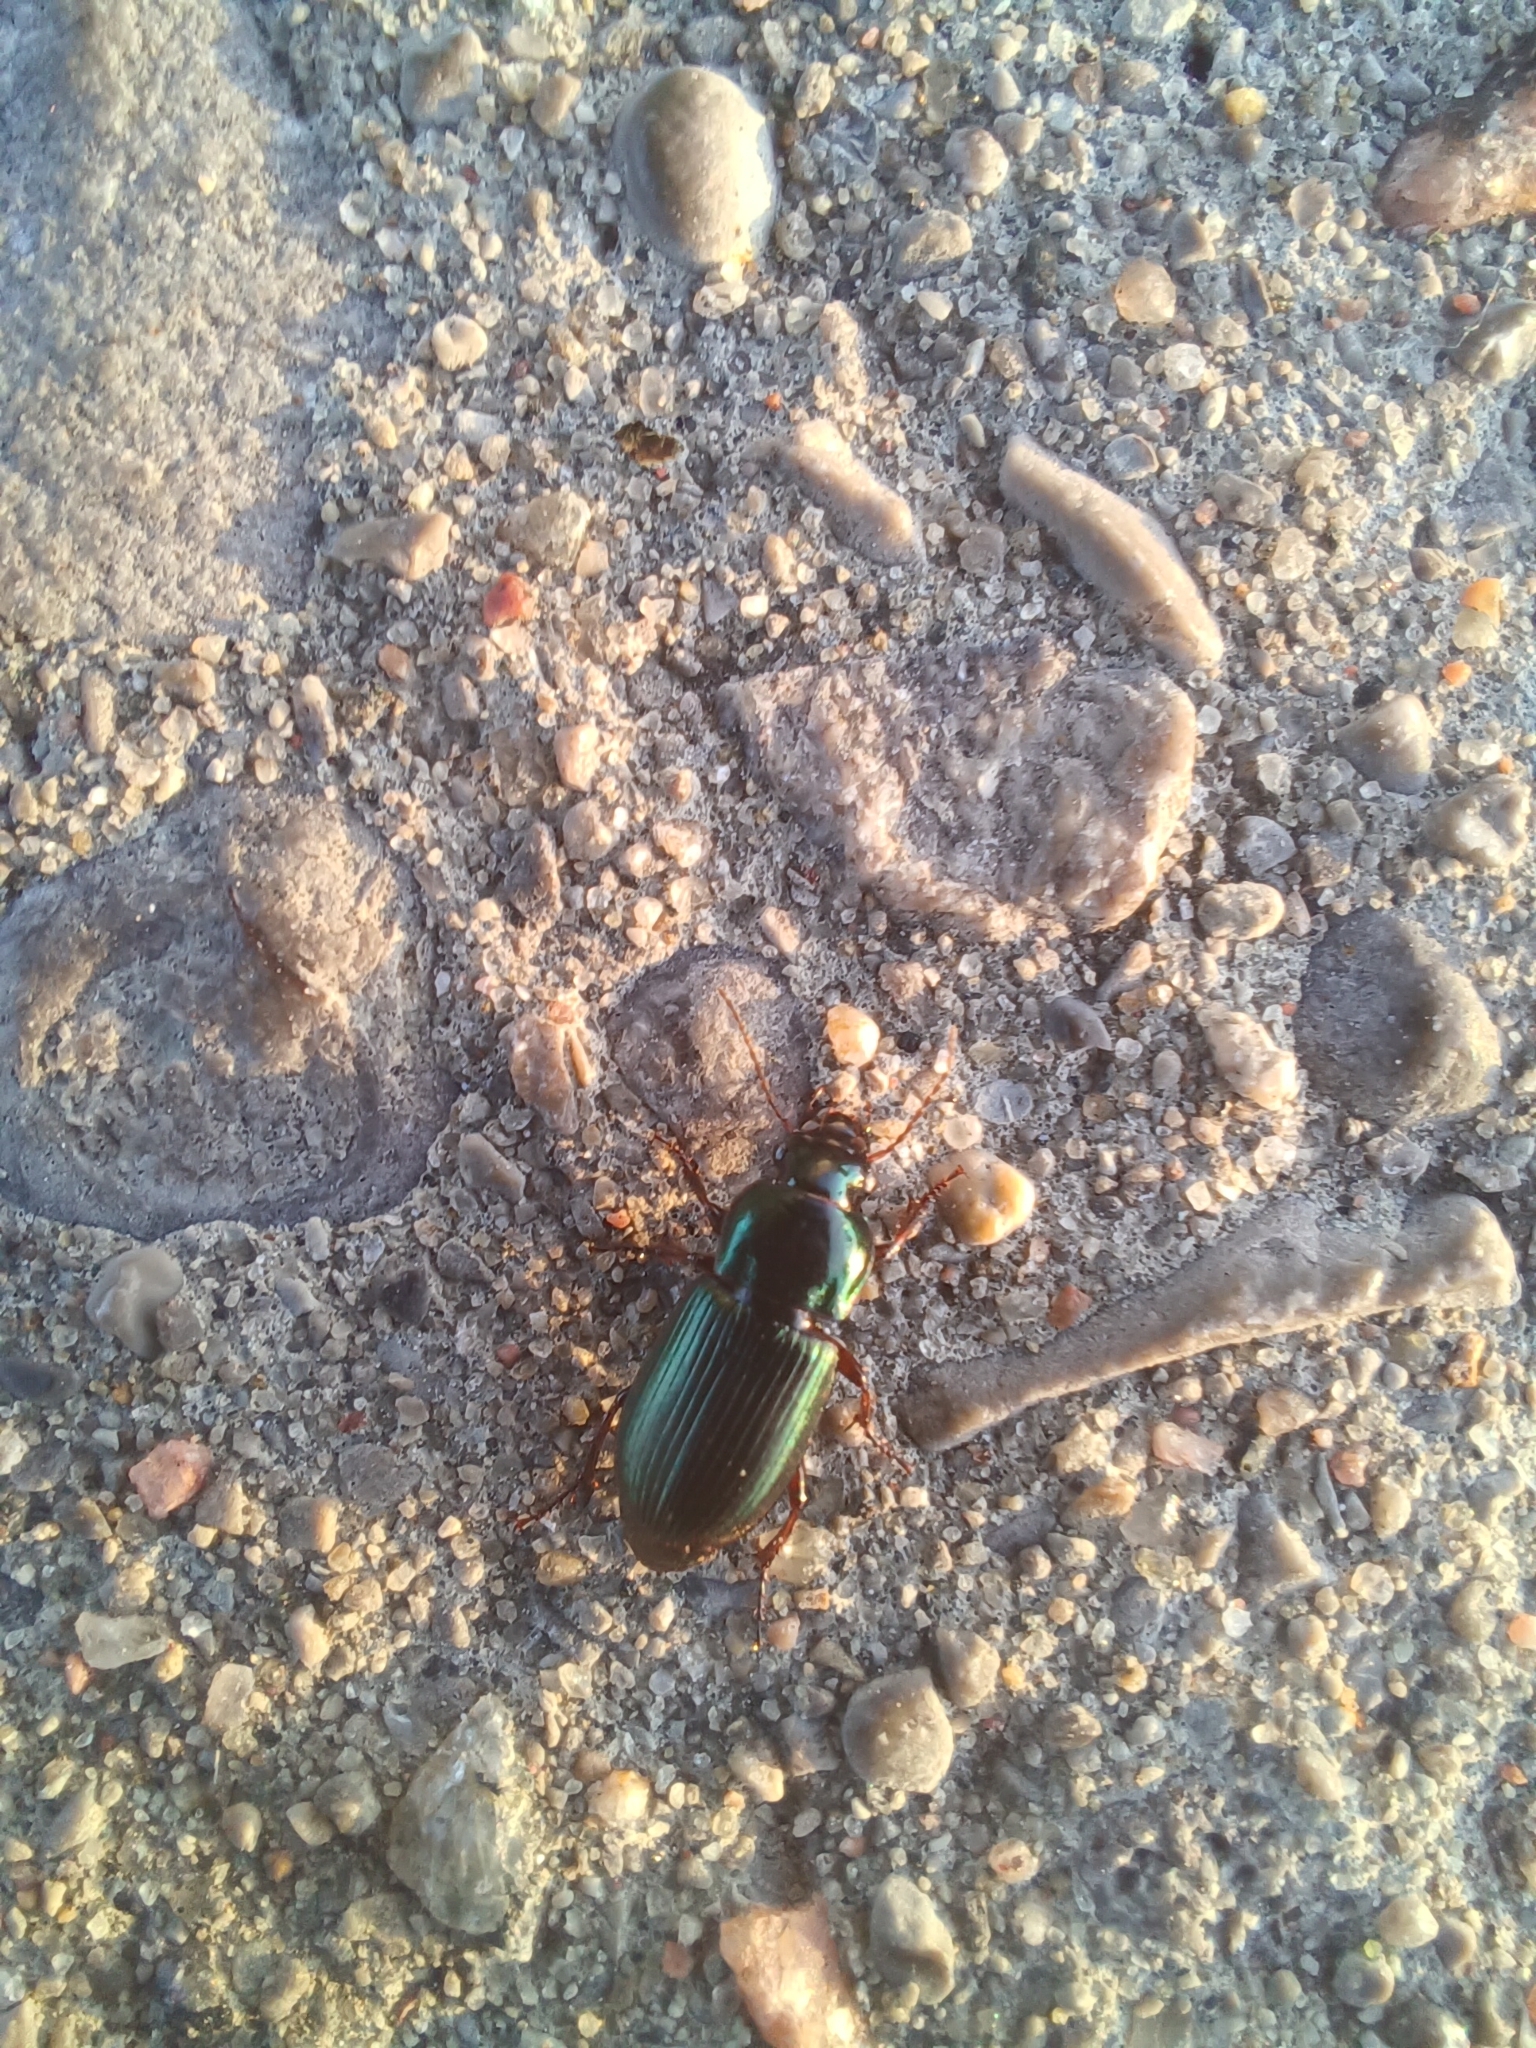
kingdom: Animalia
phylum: Arthropoda
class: Insecta
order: Coleoptera
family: Carabidae
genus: Harpalus
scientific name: Harpalus affinis
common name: Polychrome harp ground beetle
